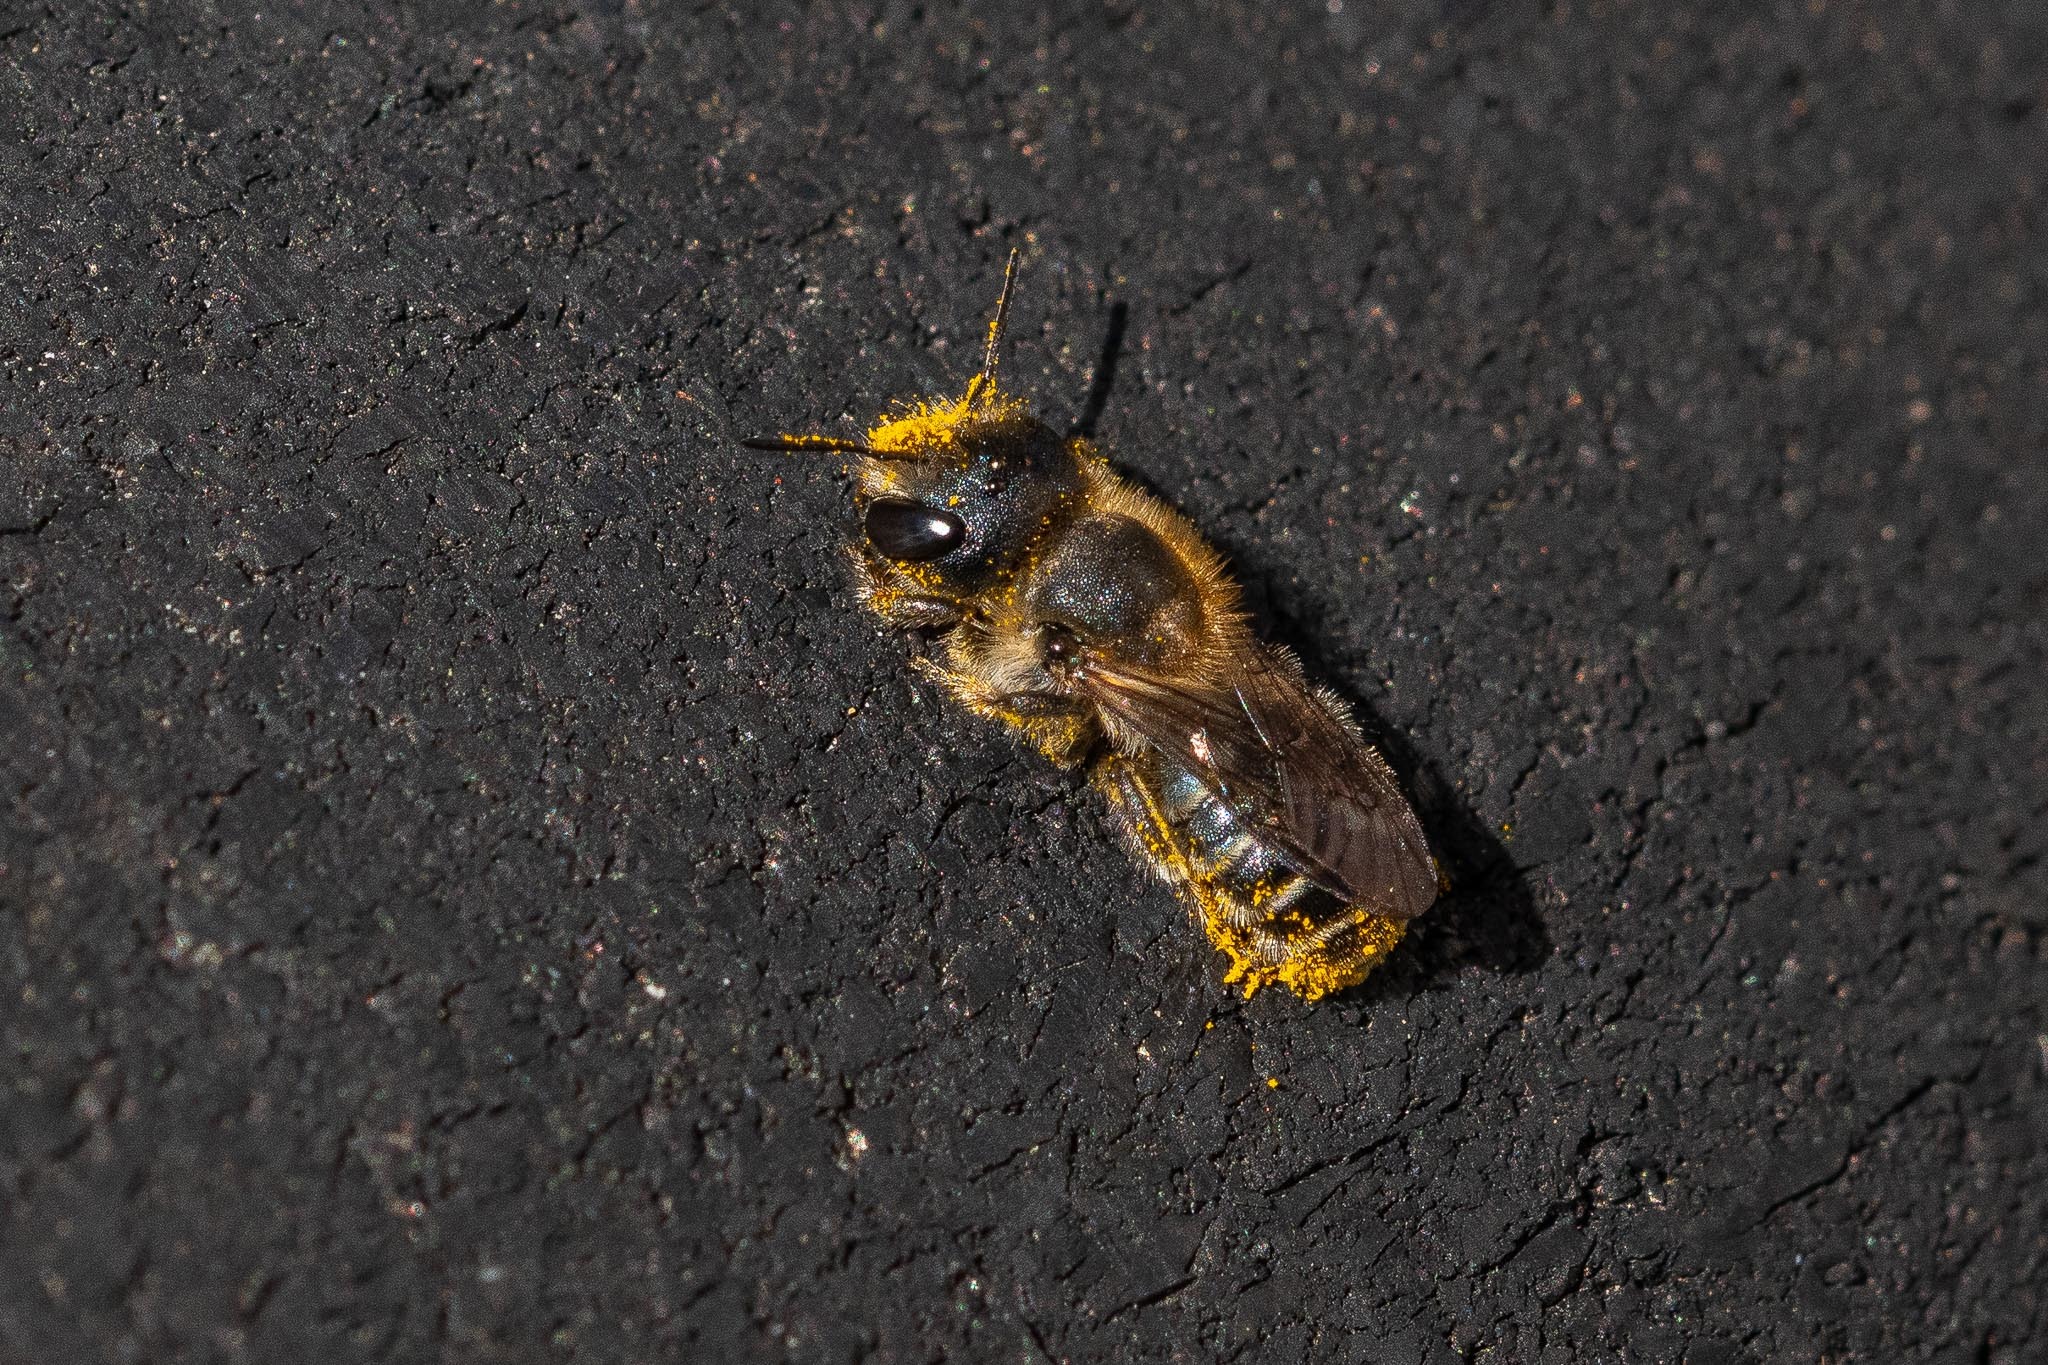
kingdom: Animalia
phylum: Arthropoda
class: Insecta
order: Hymenoptera
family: Megachilidae
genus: Osmia
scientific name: Osmia caerulescens
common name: Blue mason bee
